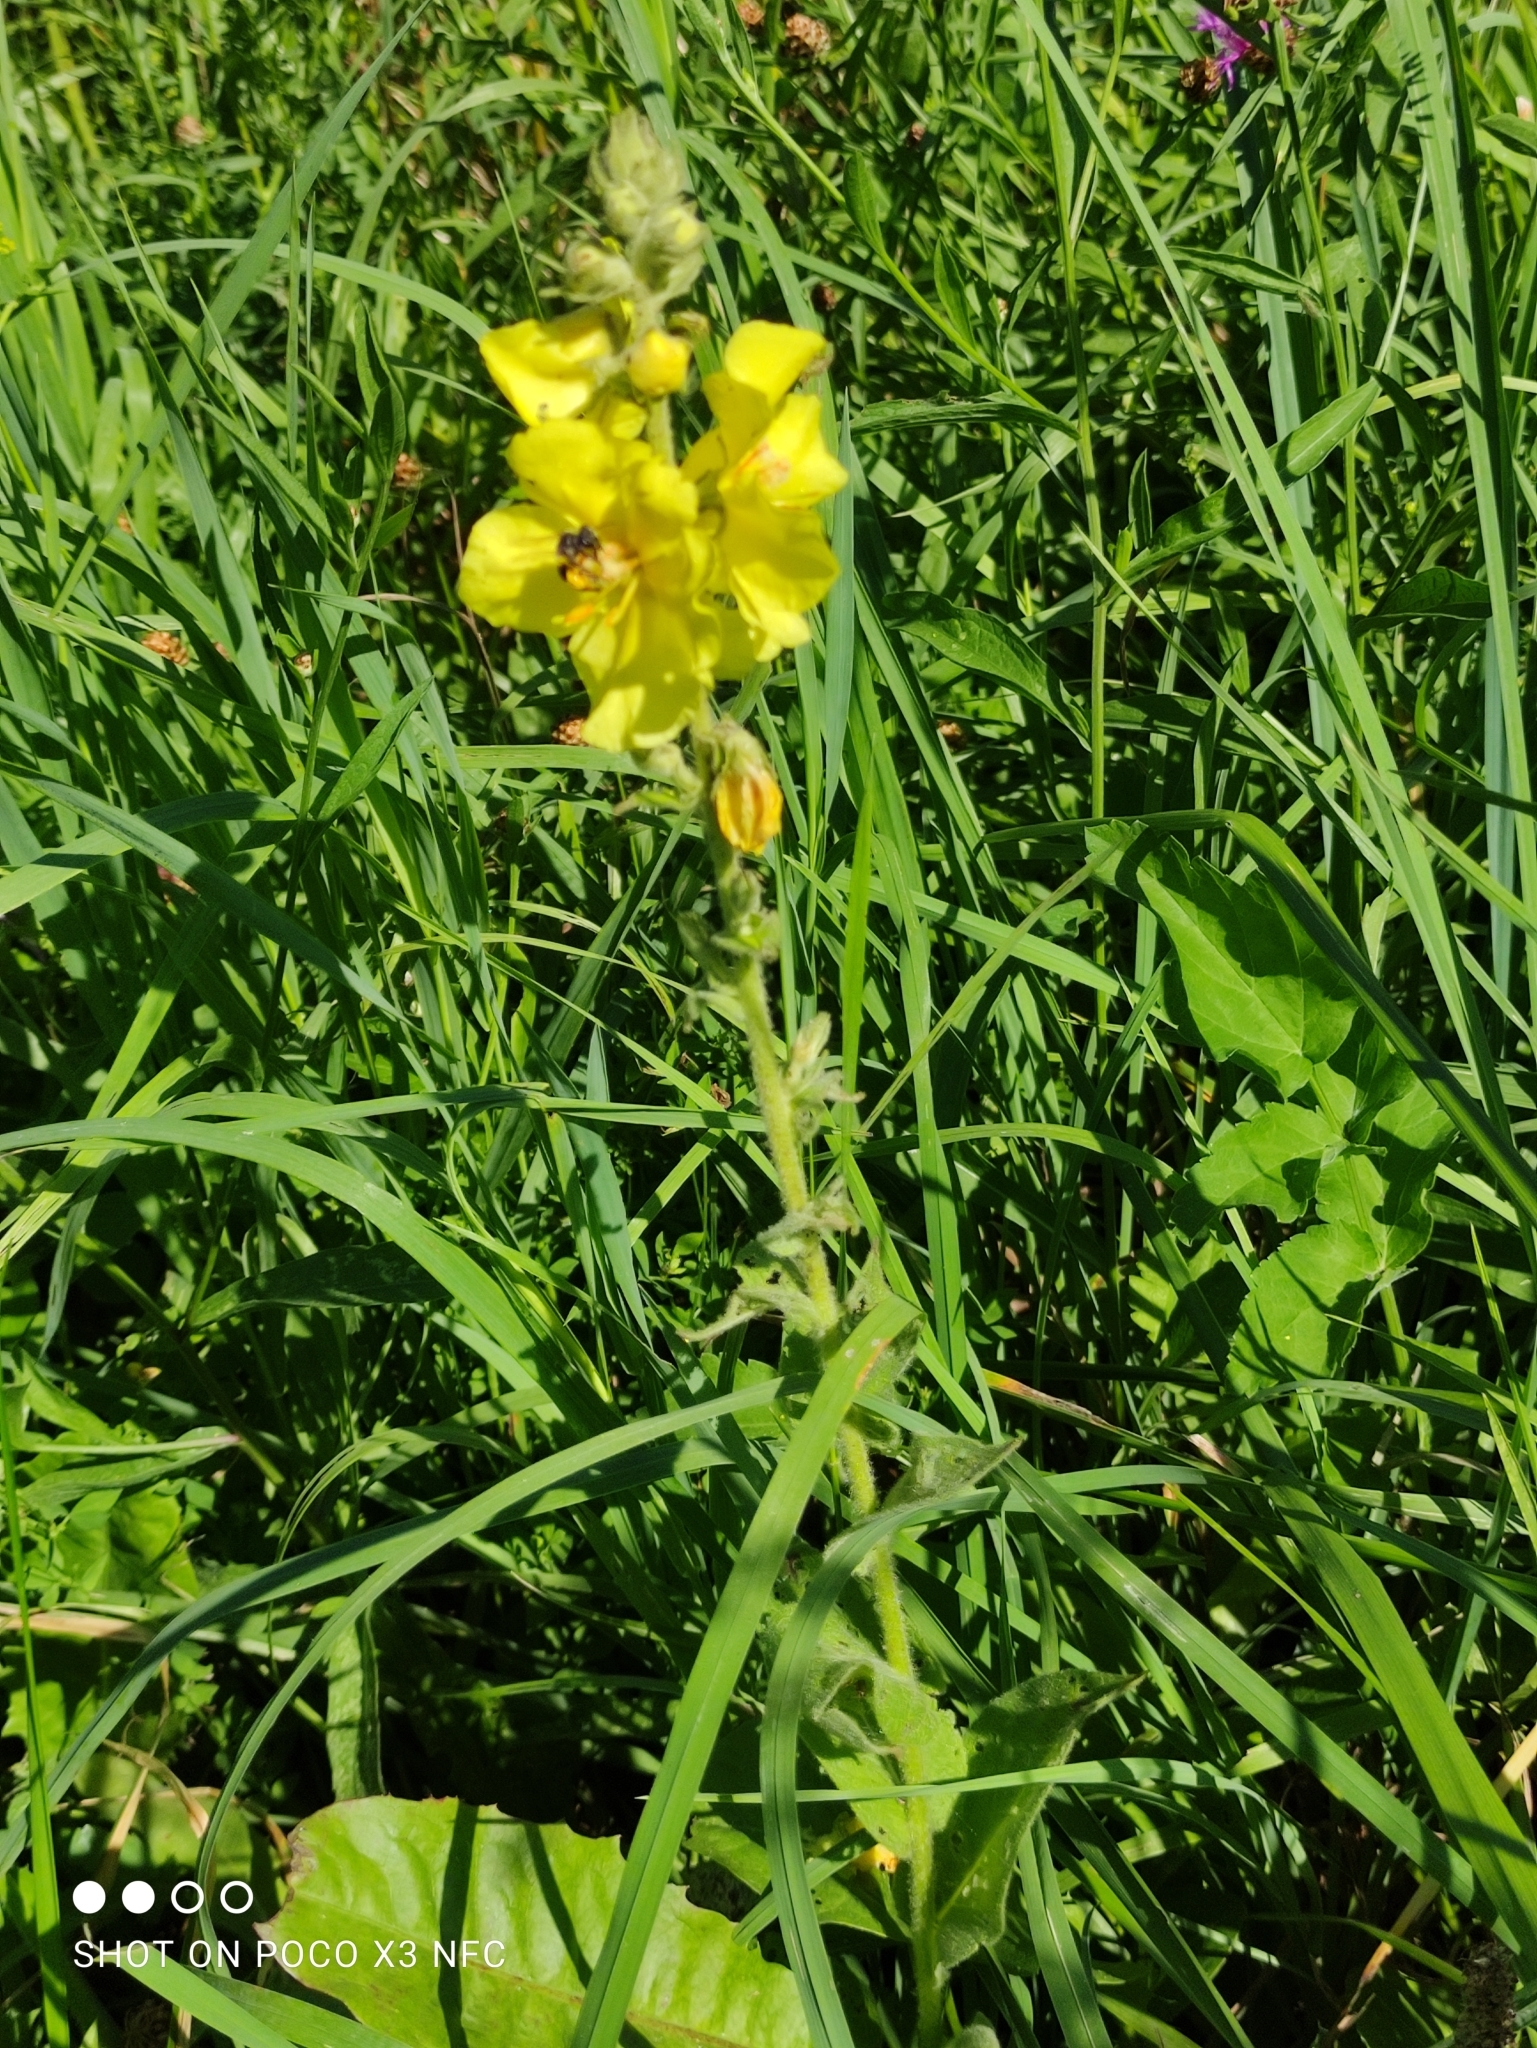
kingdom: Plantae
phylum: Tracheophyta
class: Magnoliopsida
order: Lamiales
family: Scrophulariaceae
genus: Verbascum
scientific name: Verbascum phlomoides
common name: Orange mullein
